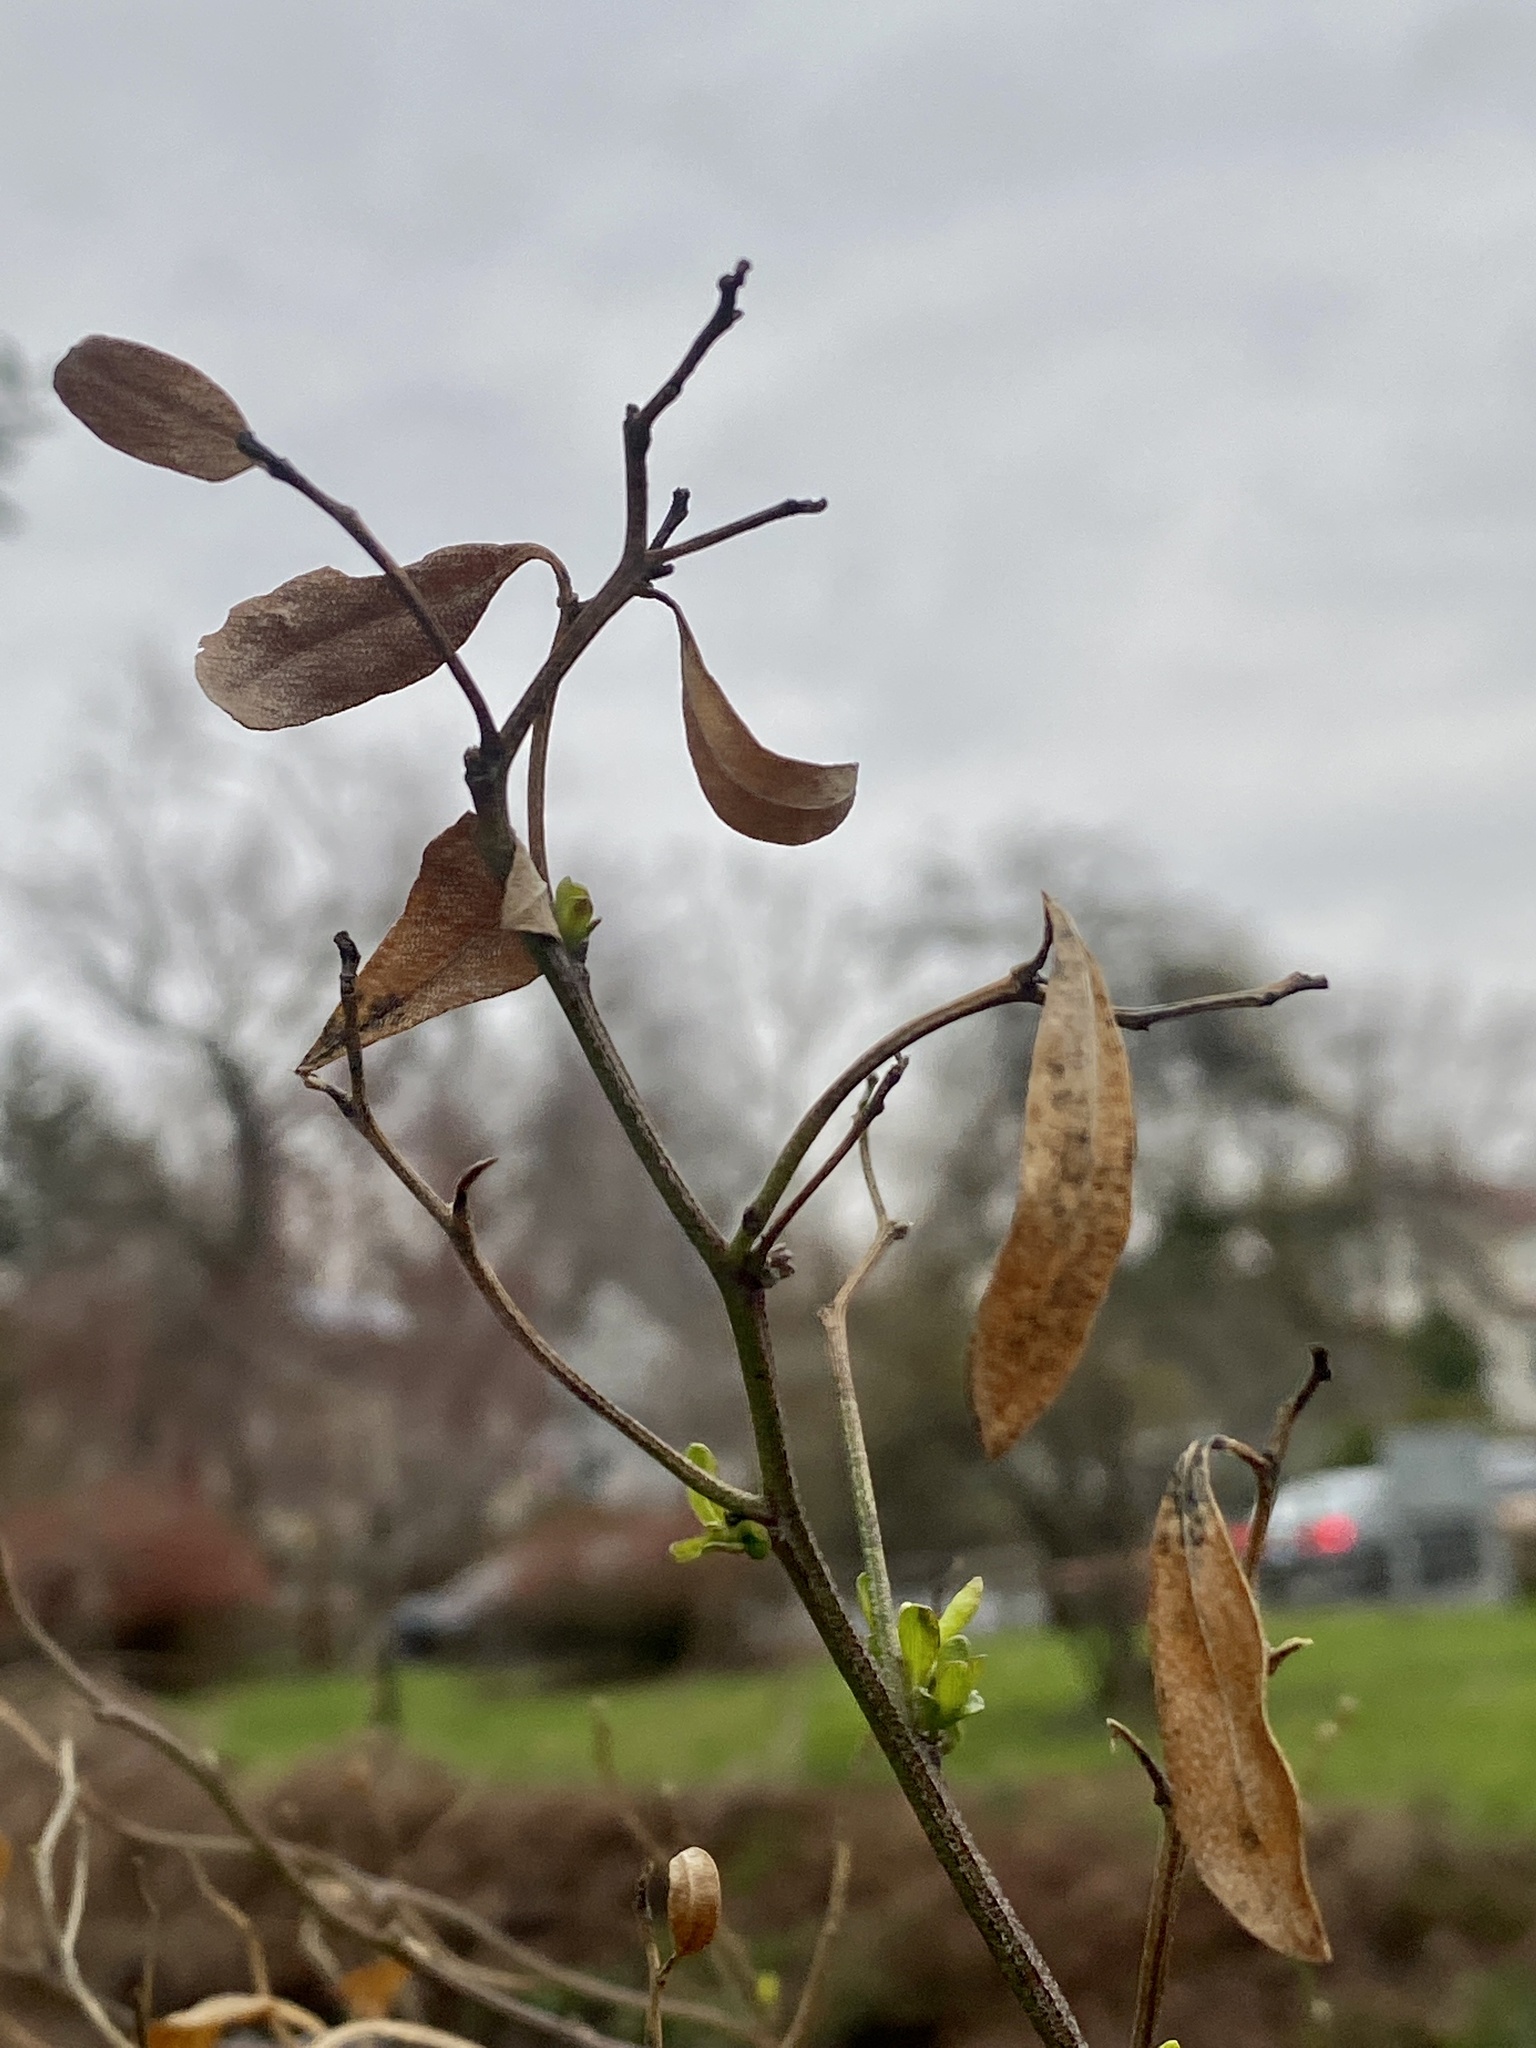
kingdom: Plantae
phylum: Tracheophyta
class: Magnoliopsida
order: Asterales
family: Asteraceae
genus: Baccharis
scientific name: Baccharis halimifolia
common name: Eastern baccharis
